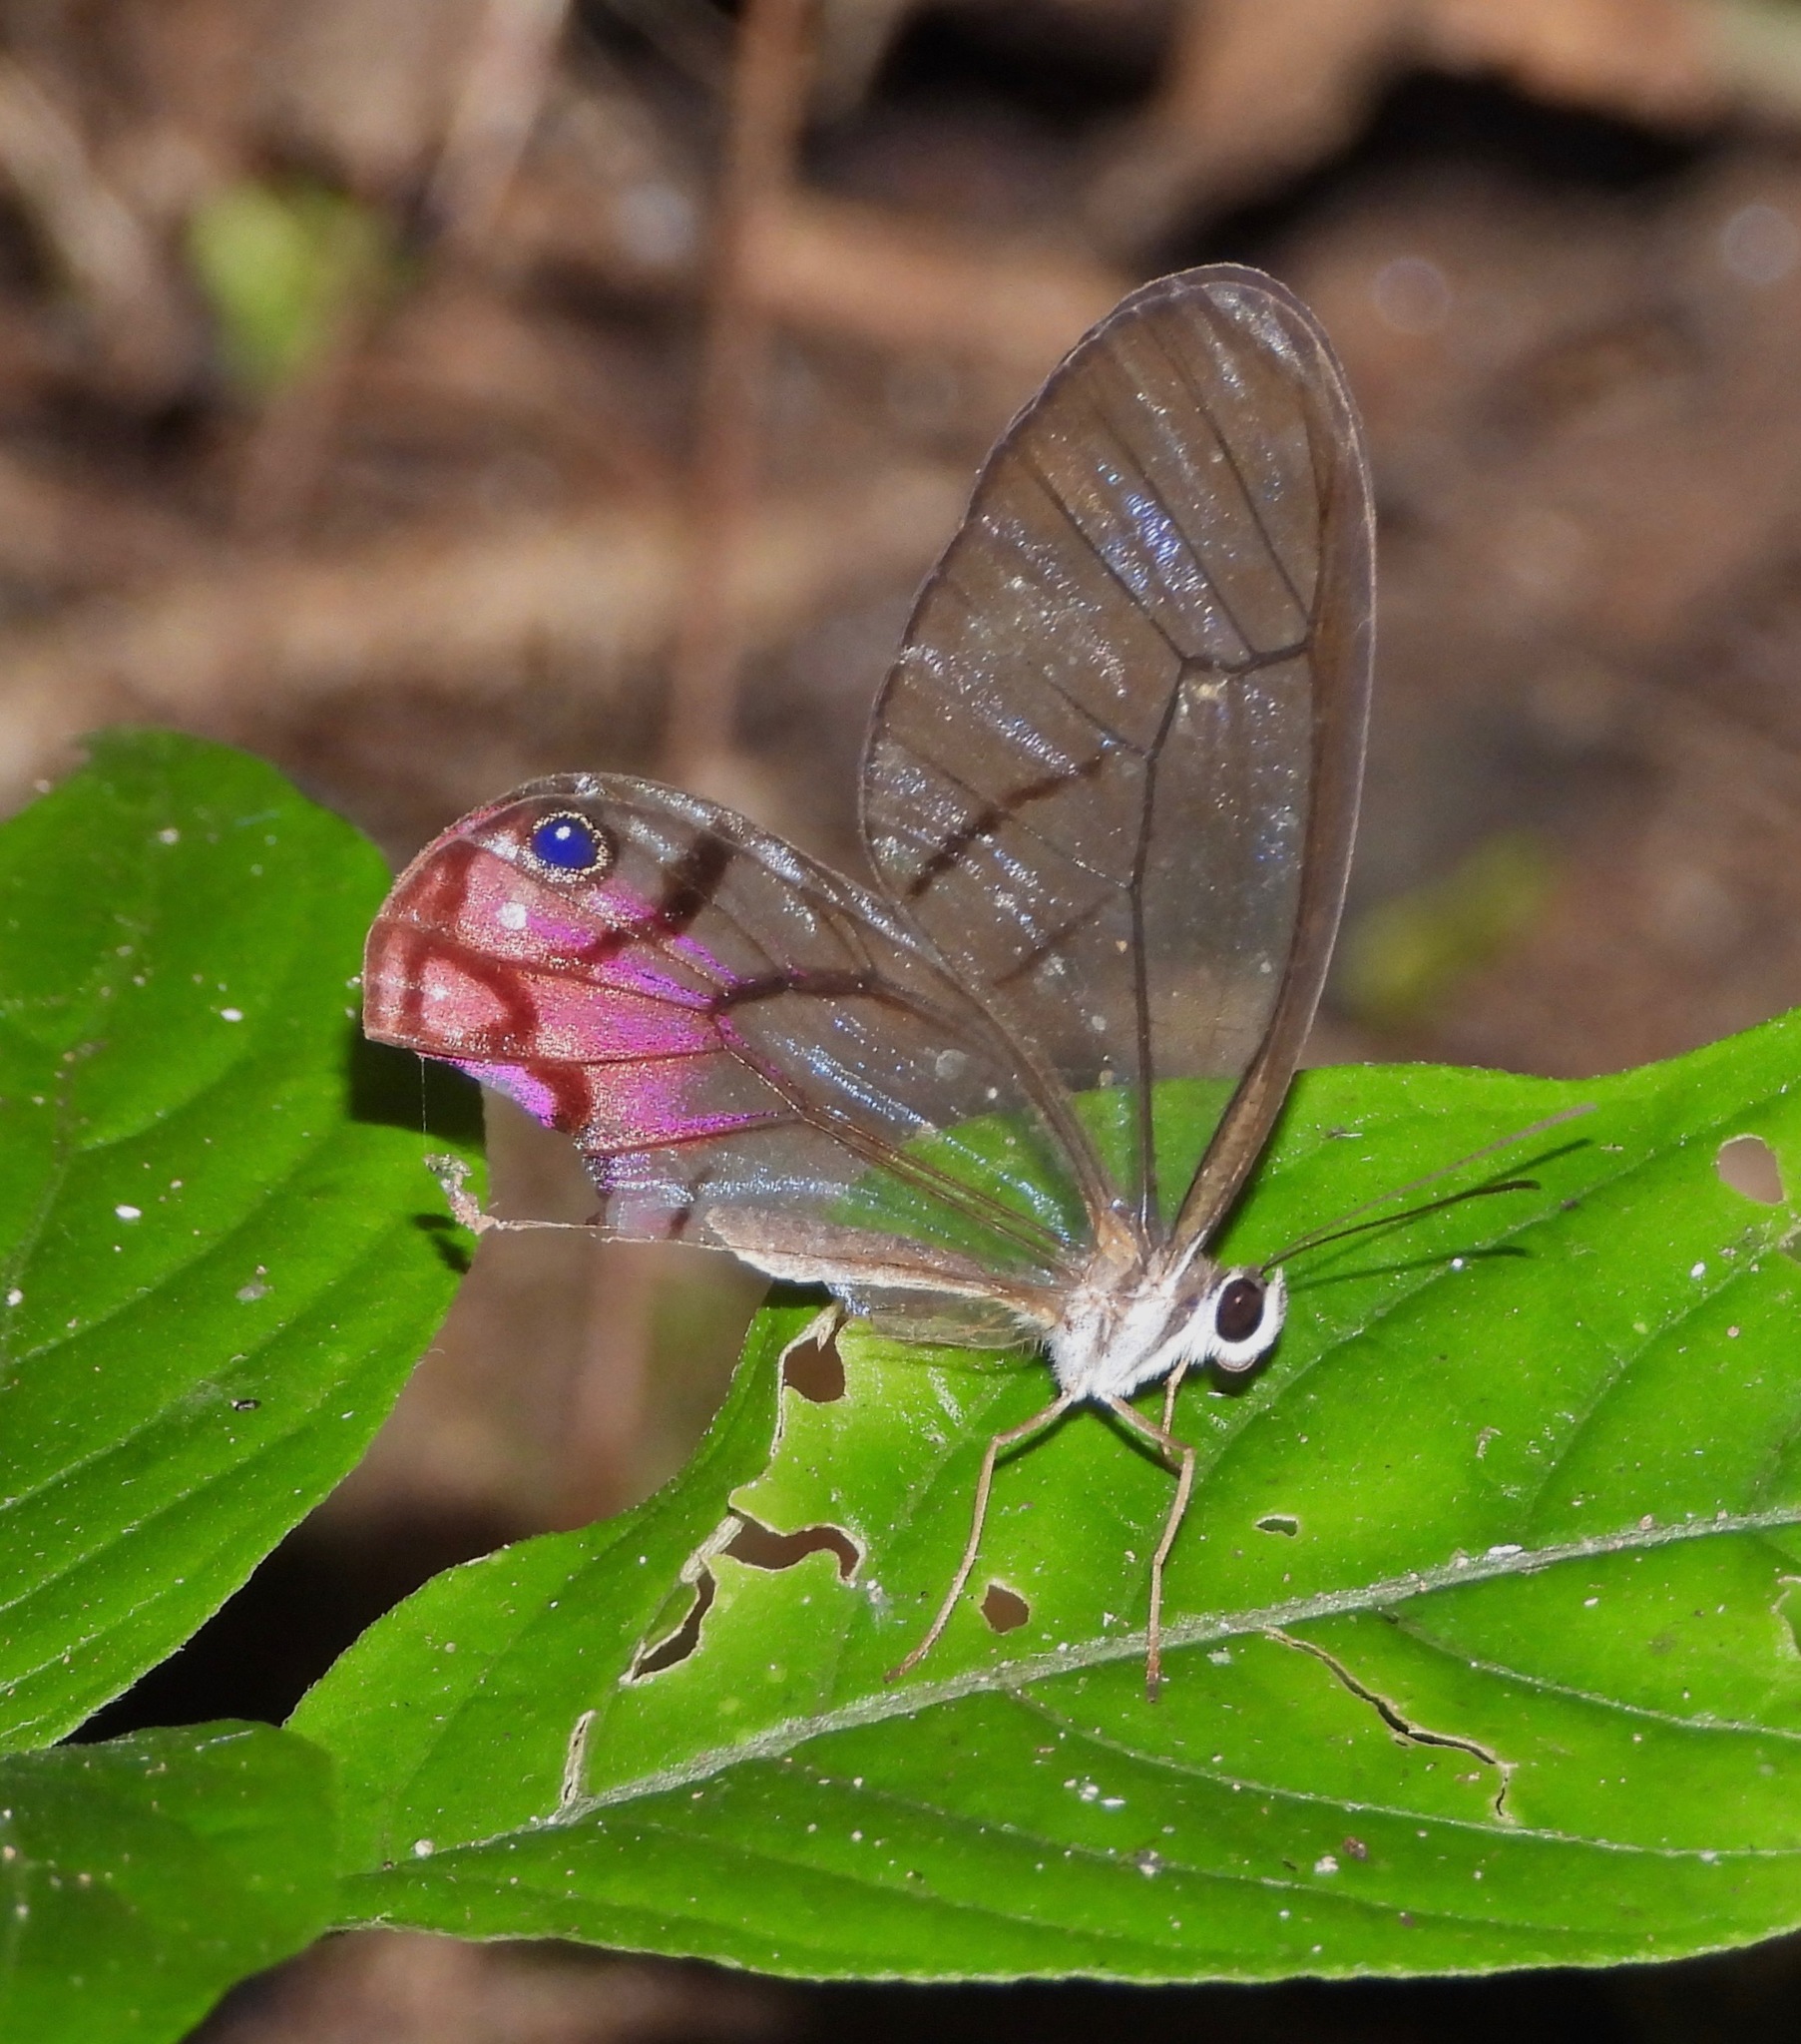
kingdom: Animalia
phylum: Arthropoda
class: Insecta
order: Lepidoptera
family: Nymphalidae
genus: Cithaerias
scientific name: Cithaerias cliftoni
